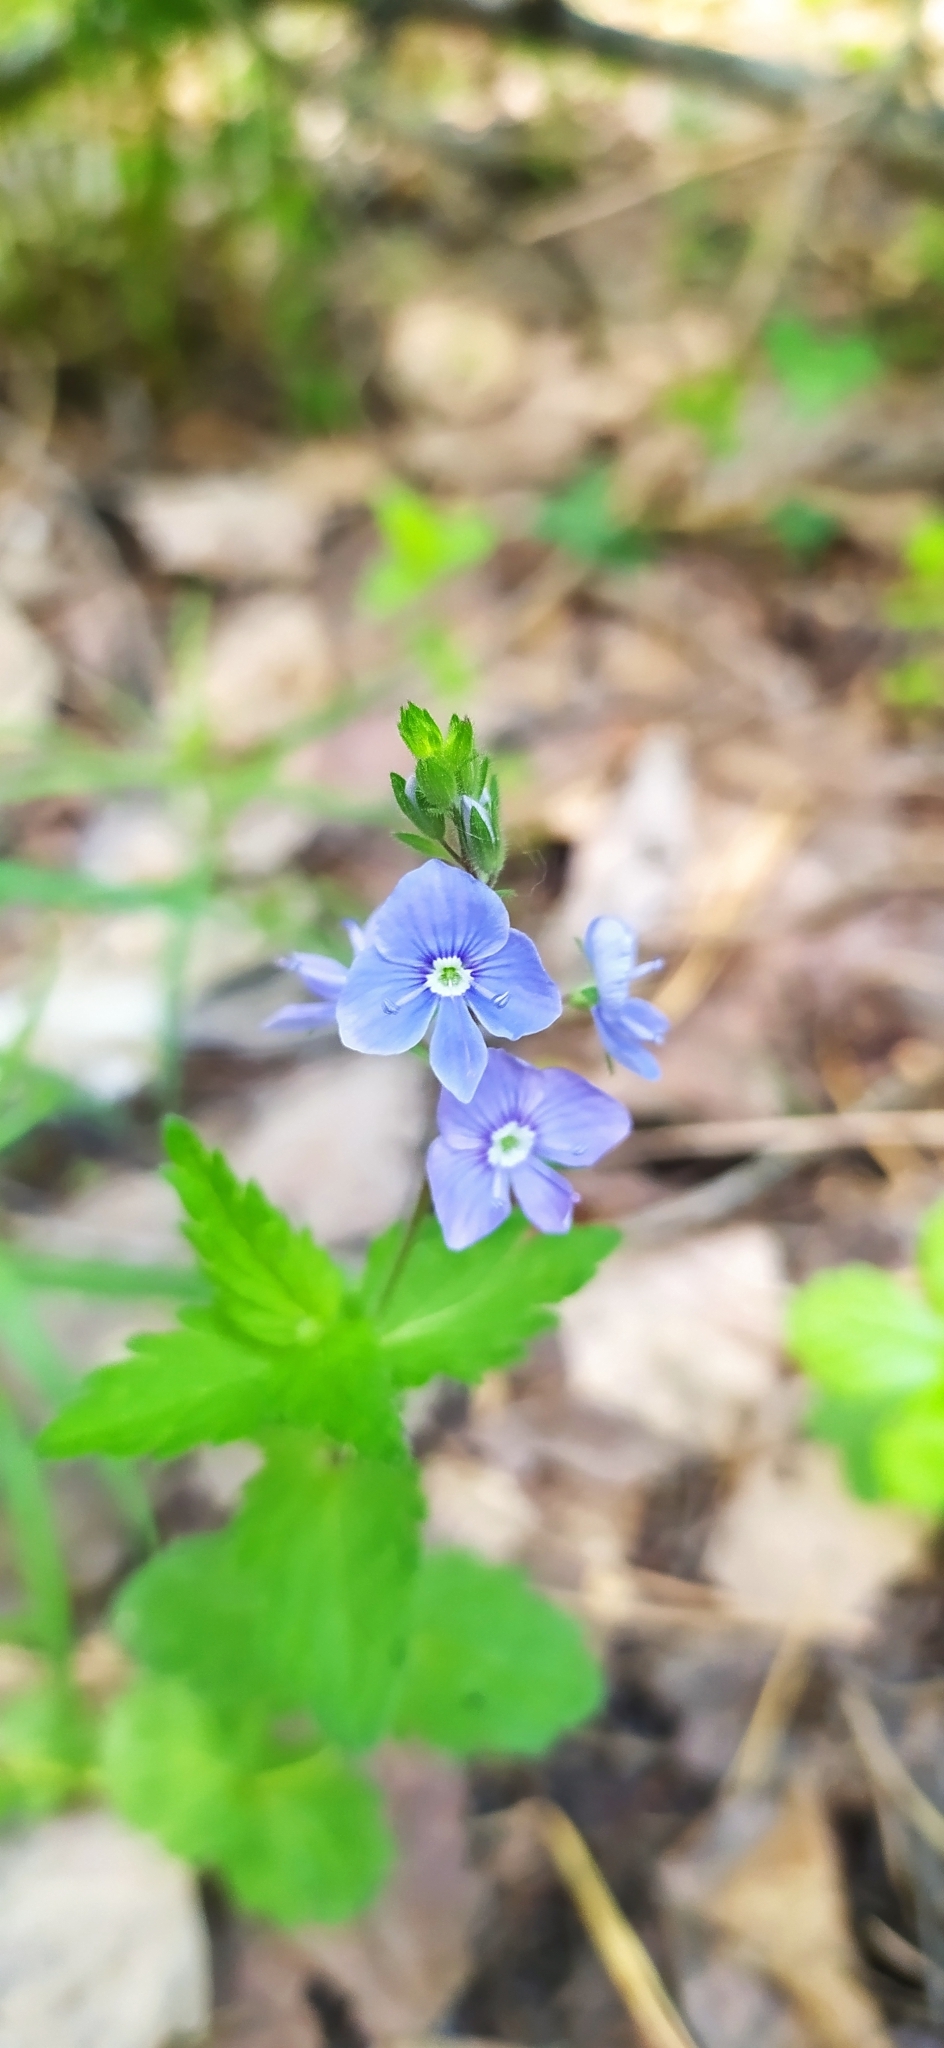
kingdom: Plantae
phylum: Tracheophyta
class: Magnoliopsida
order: Lamiales
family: Plantaginaceae
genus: Veronica
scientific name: Veronica chamaedrys
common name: Germander speedwell
